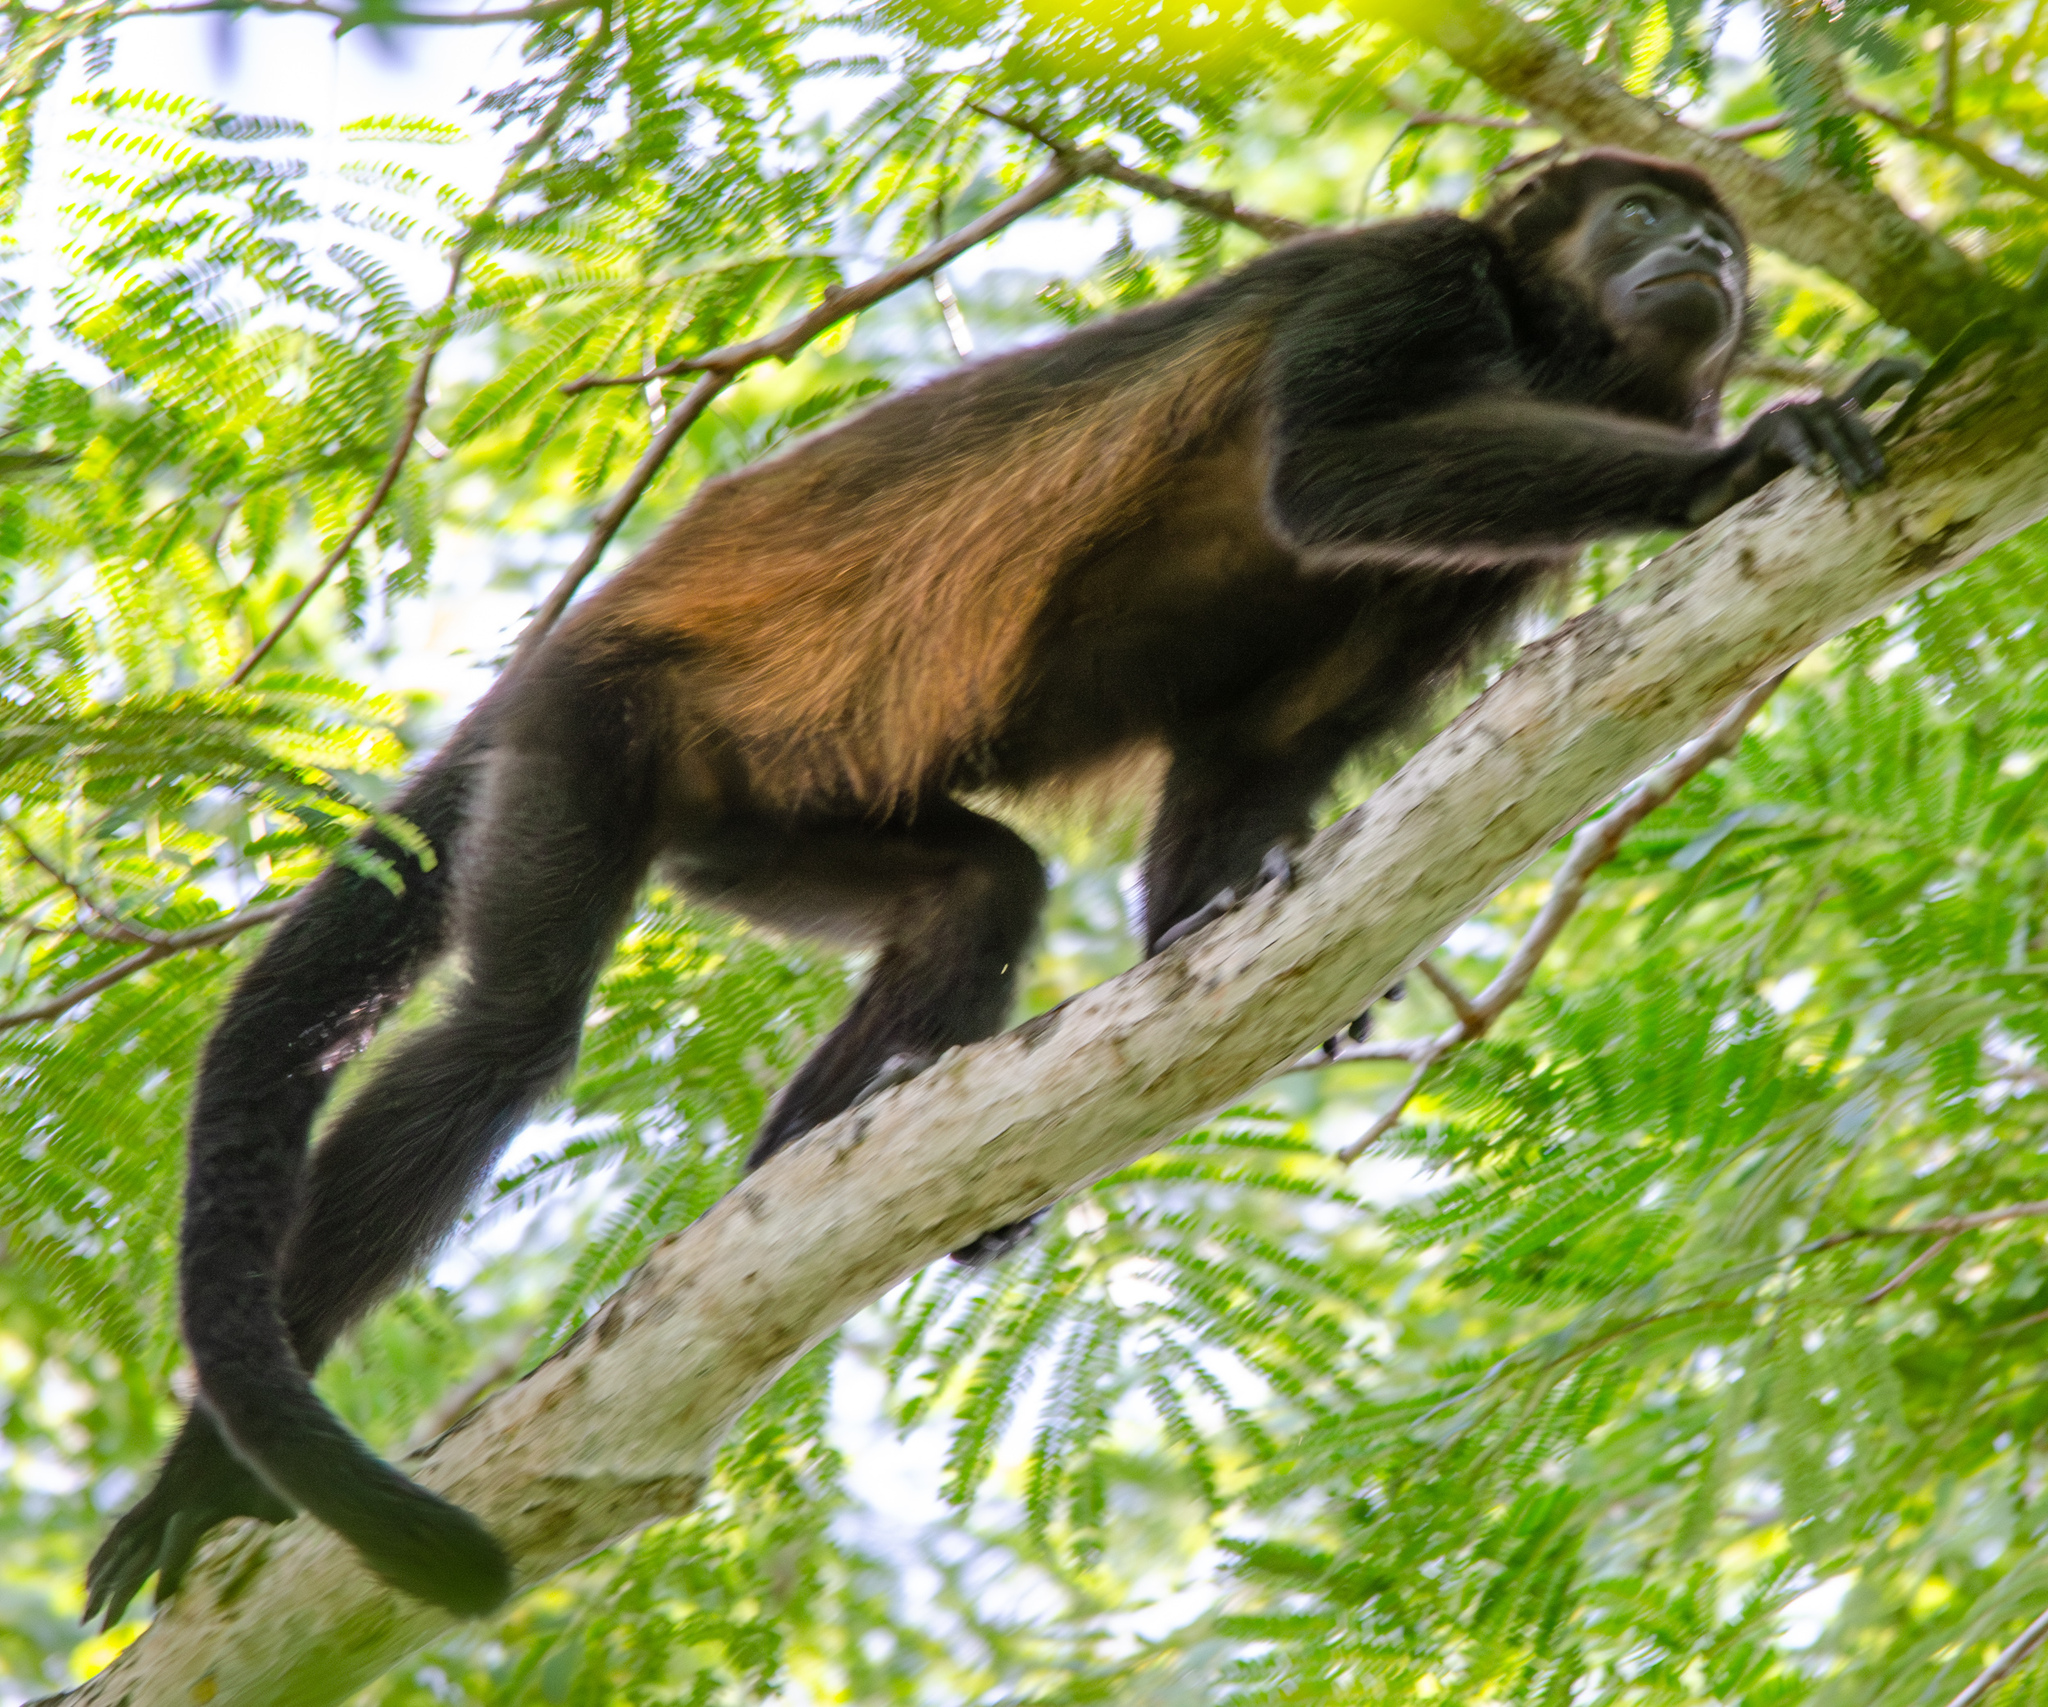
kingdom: Animalia
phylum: Chordata
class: Mammalia
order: Primates
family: Atelidae
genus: Alouatta
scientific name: Alouatta palliata
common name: Mantled howler
